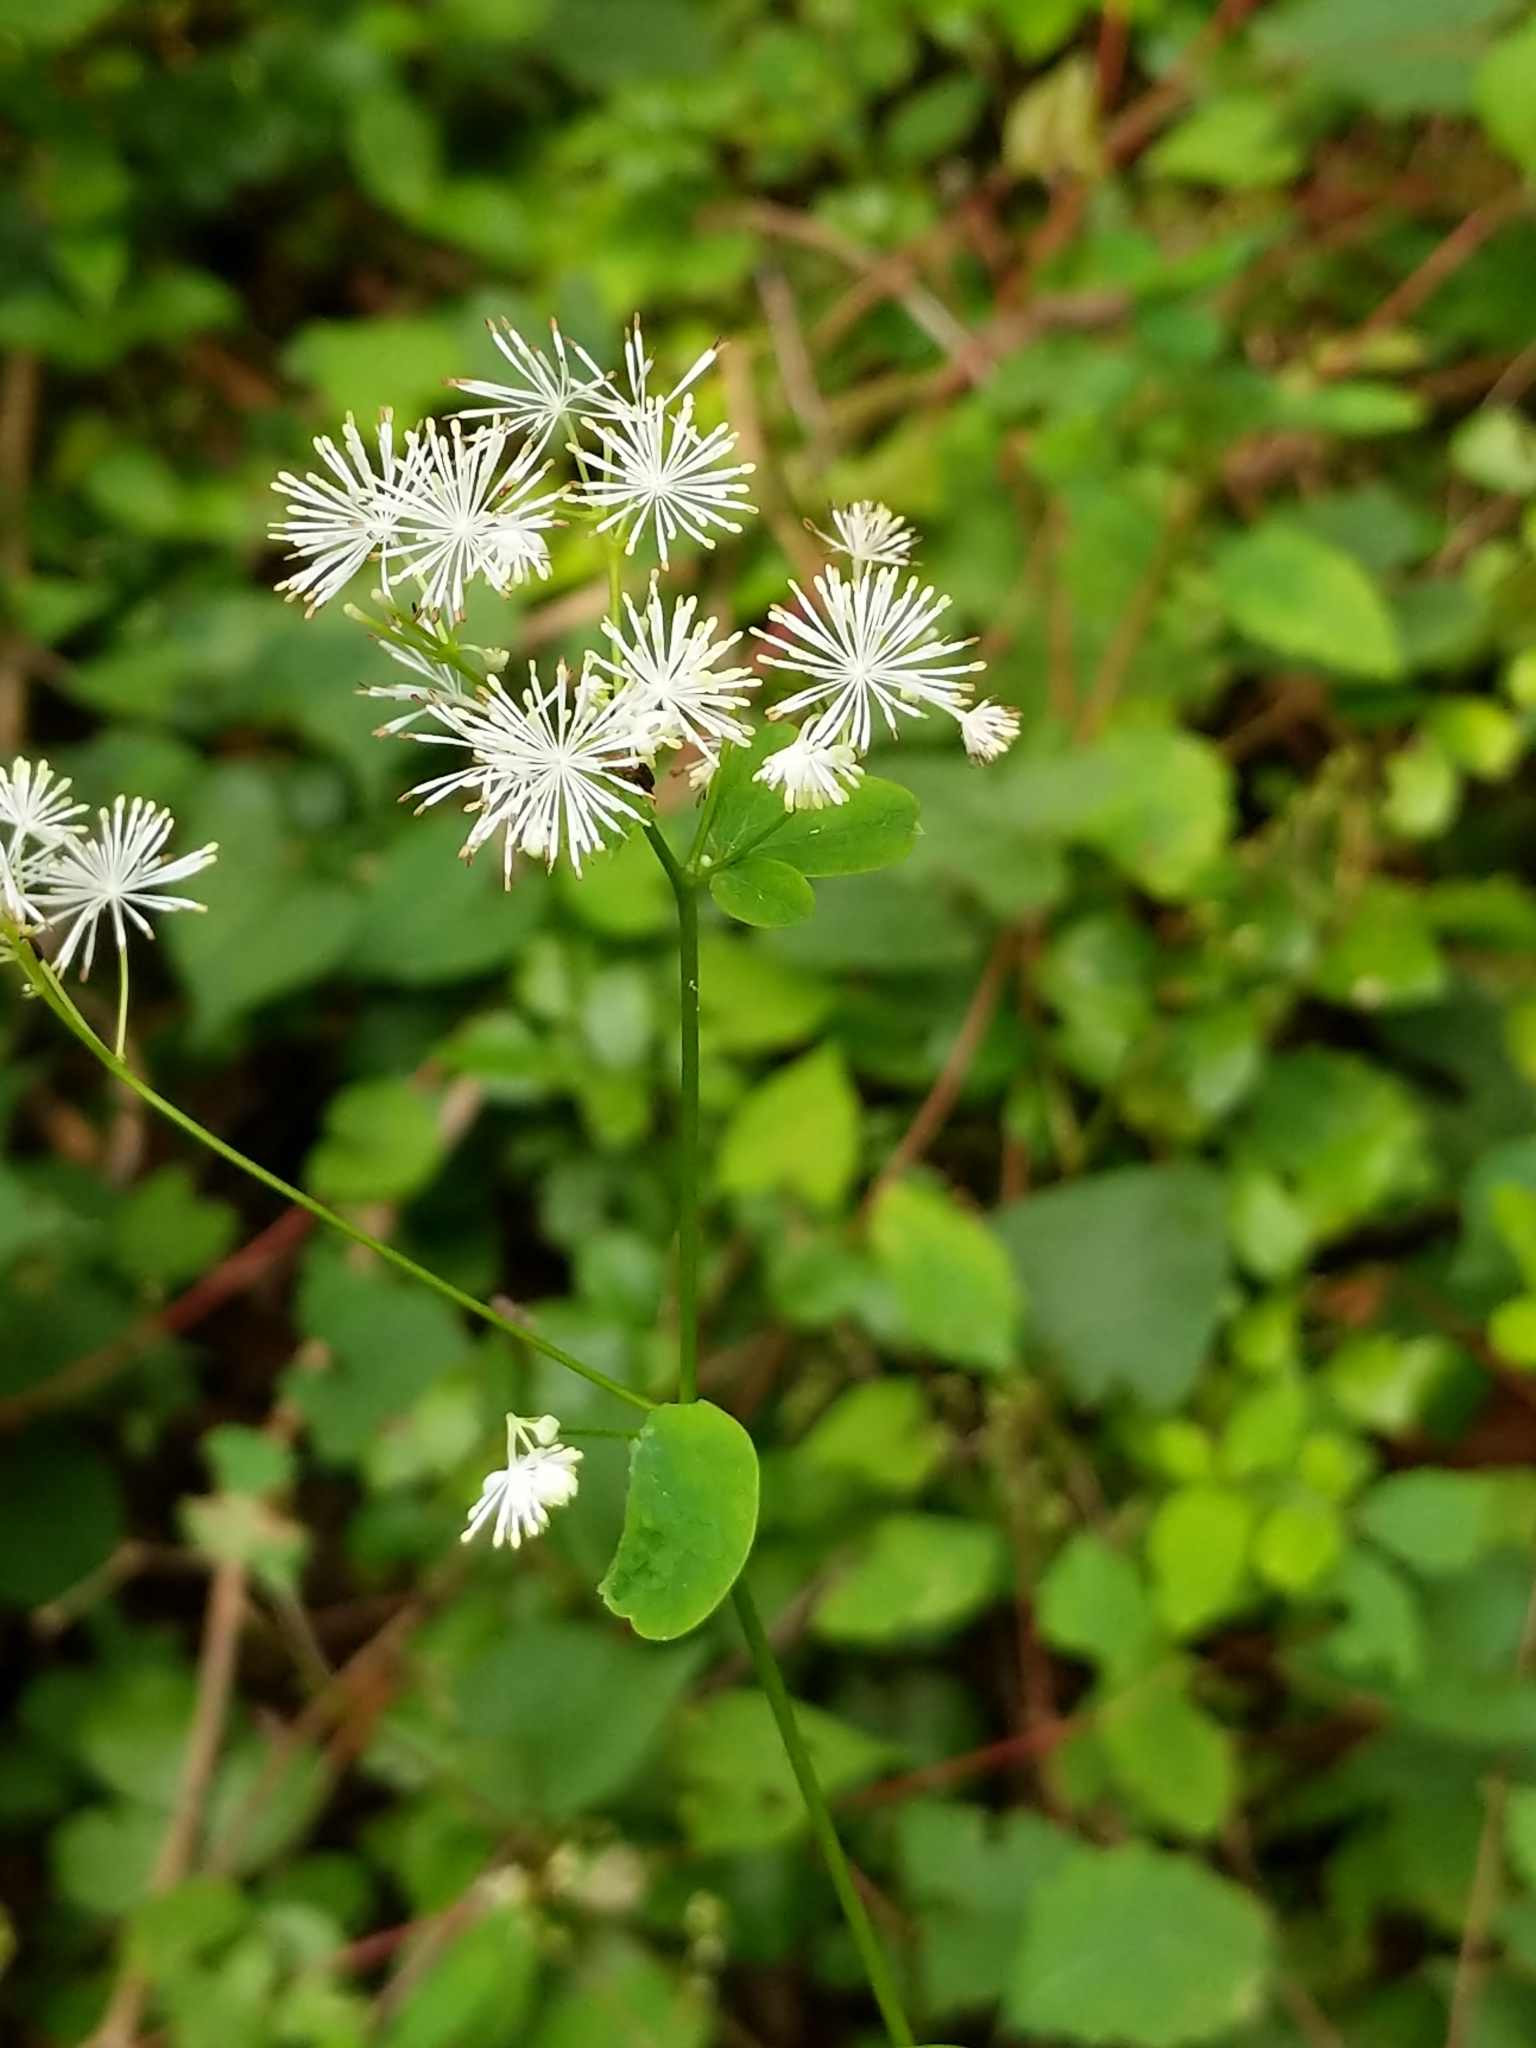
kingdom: Plantae
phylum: Tracheophyta
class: Magnoliopsida
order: Ranunculales
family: Ranunculaceae
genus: Thalictrum
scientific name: Thalictrum pubescens
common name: King-of-the-meadow
